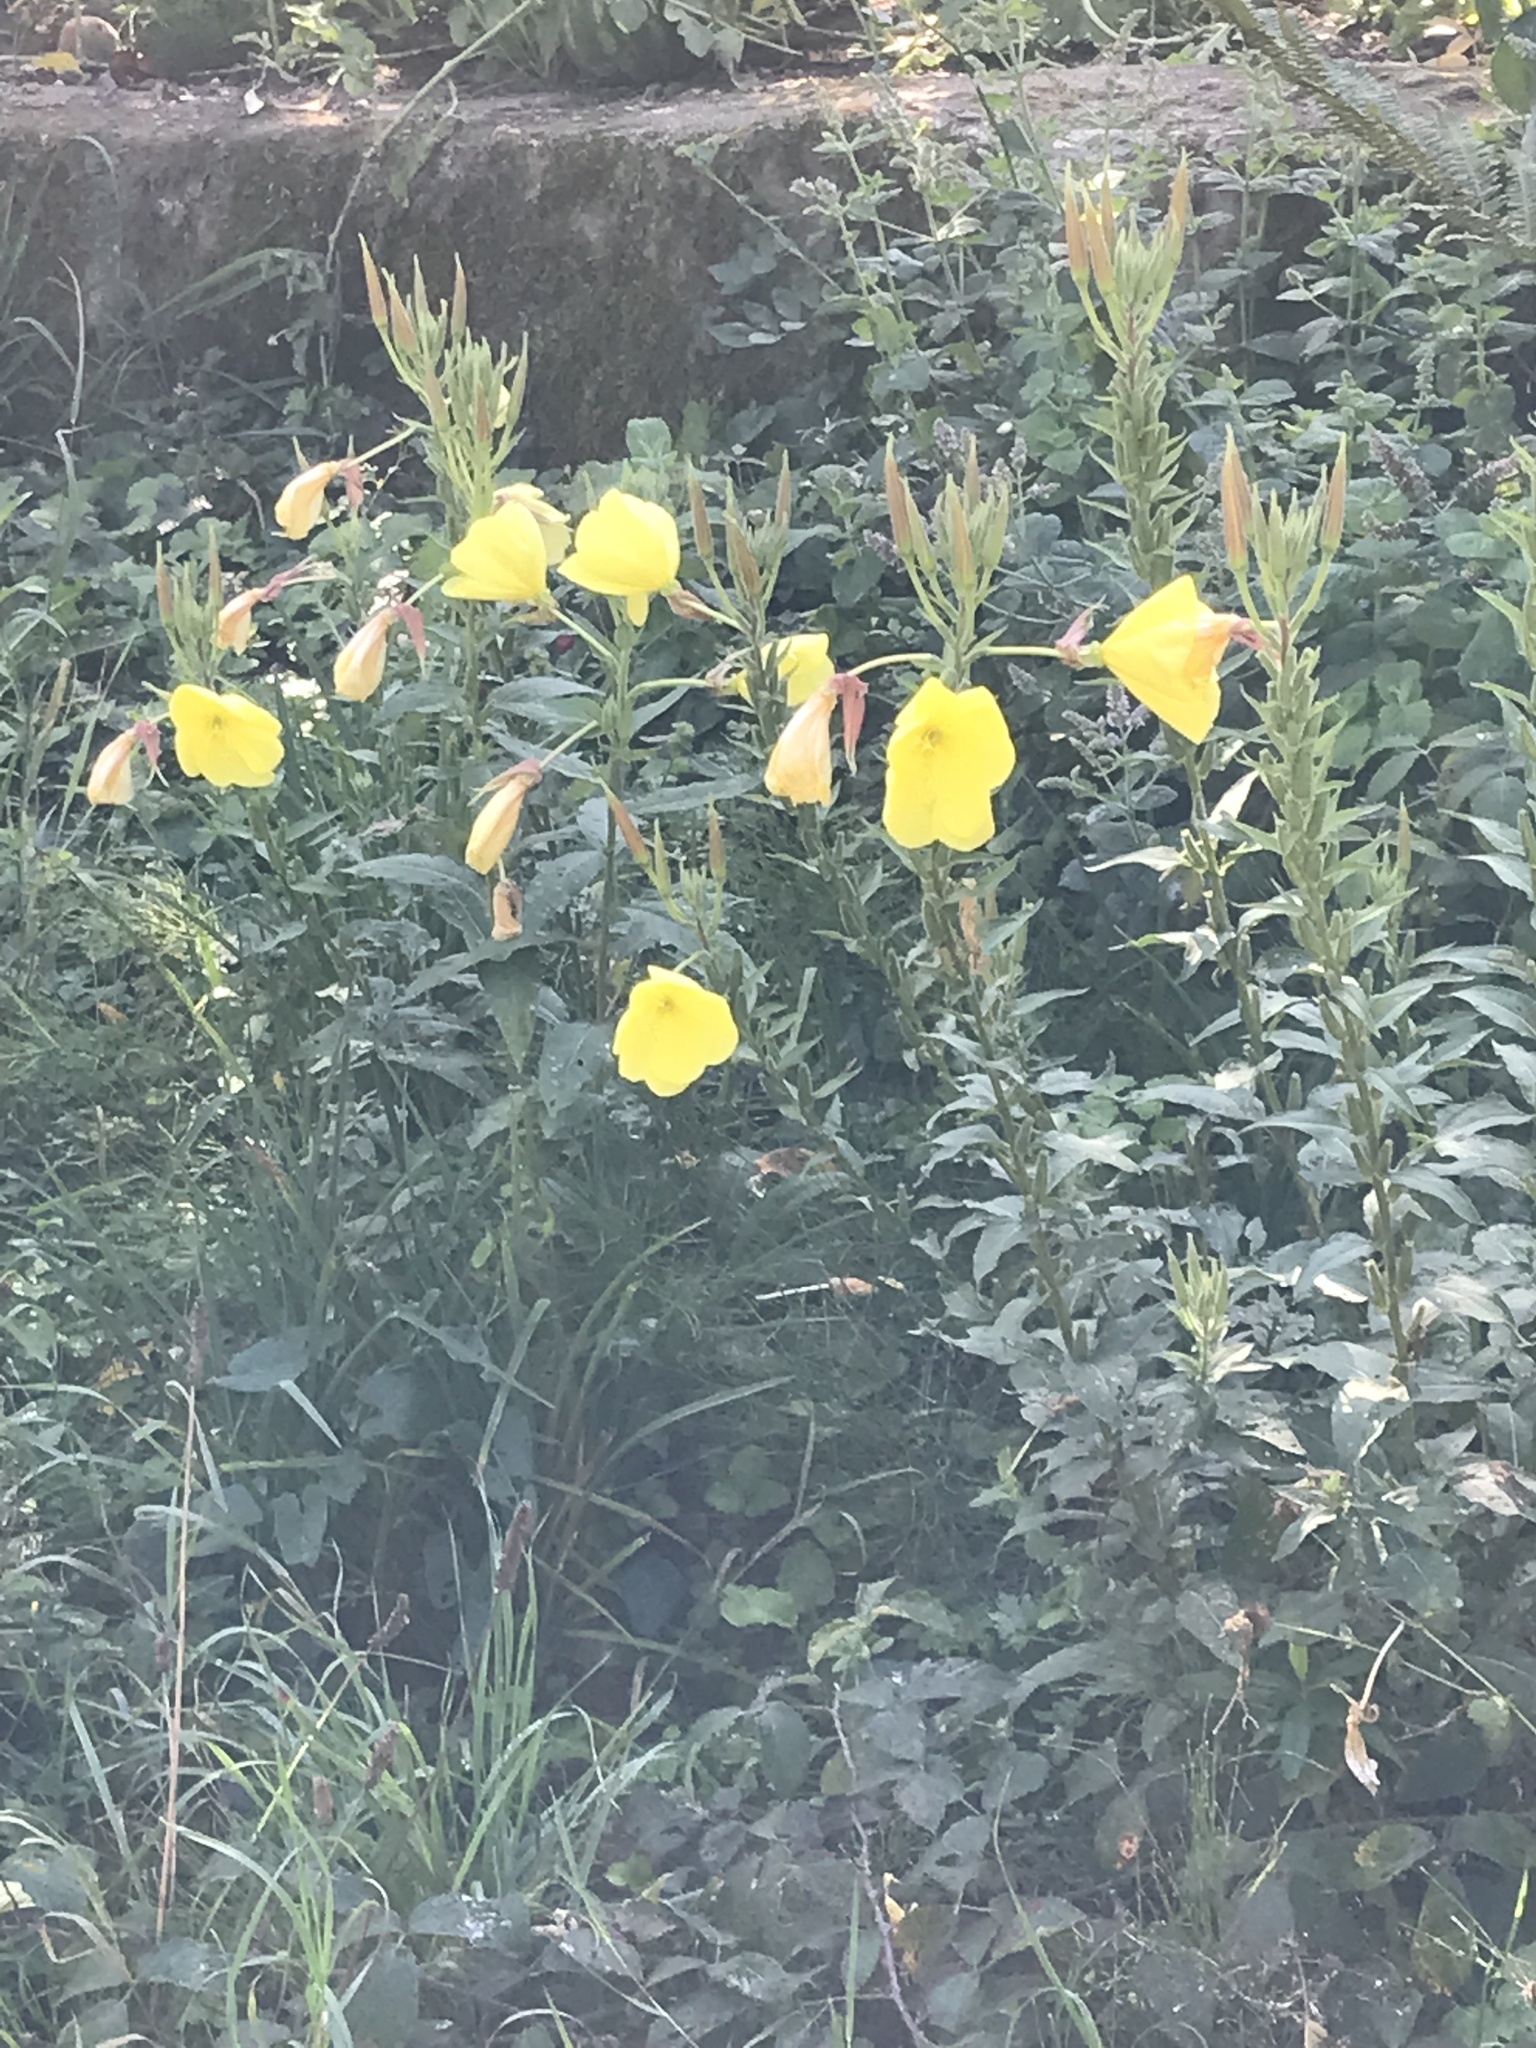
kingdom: Plantae
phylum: Tracheophyta
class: Magnoliopsida
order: Myrtales
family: Onagraceae
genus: Oenothera
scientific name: Oenothera glazioviana
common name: Large-flowered evening-primrose
